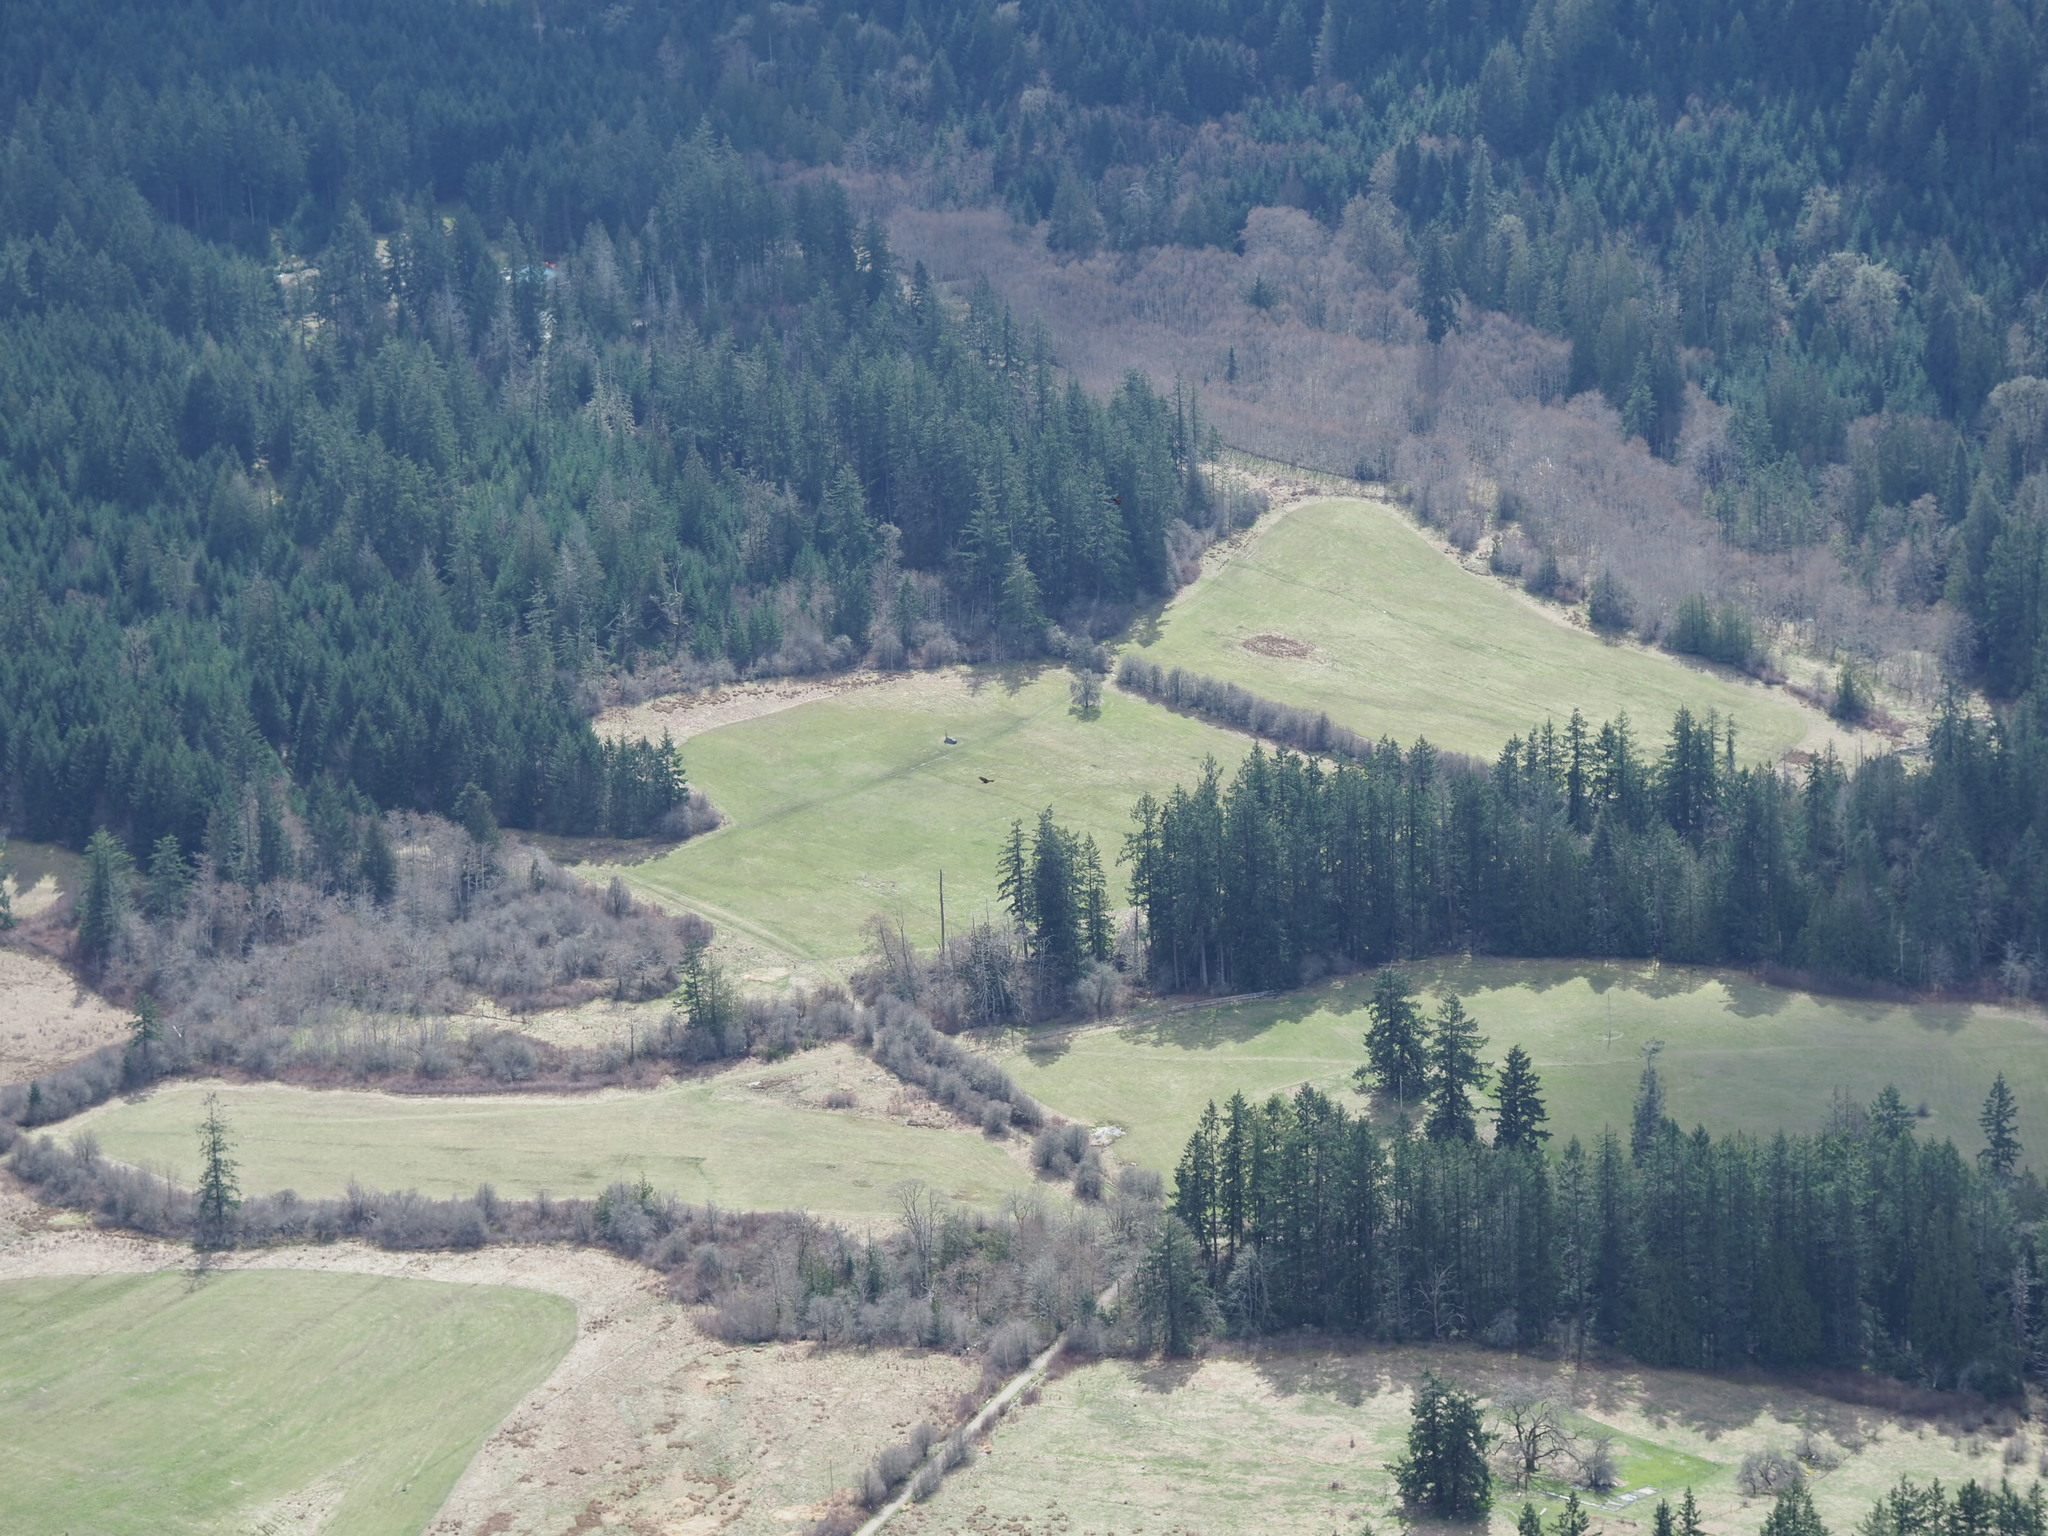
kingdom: Animalia
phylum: Chordata
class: Aves
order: Accipitriformes
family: Cathartidae
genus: Cathartes
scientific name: Cathartes aura
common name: Turkey vulture
